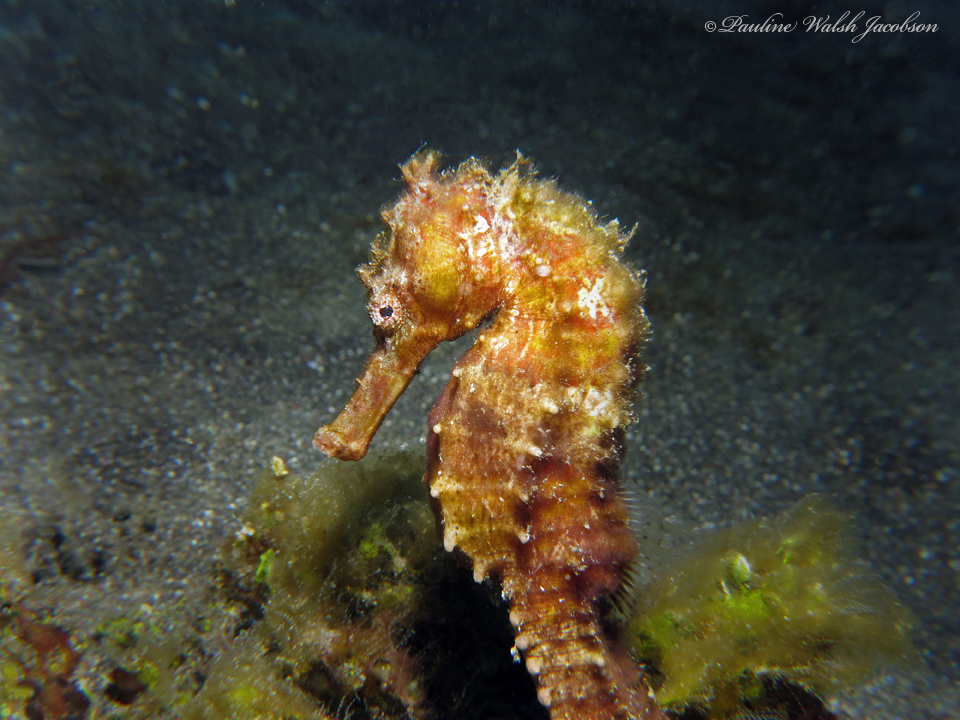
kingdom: Animalia
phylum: Chordata
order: Syngnathiformes
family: Syngnathidae
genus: Hippocampus
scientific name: Hippocampus spinosissimus
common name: Hedgehog seahorse
